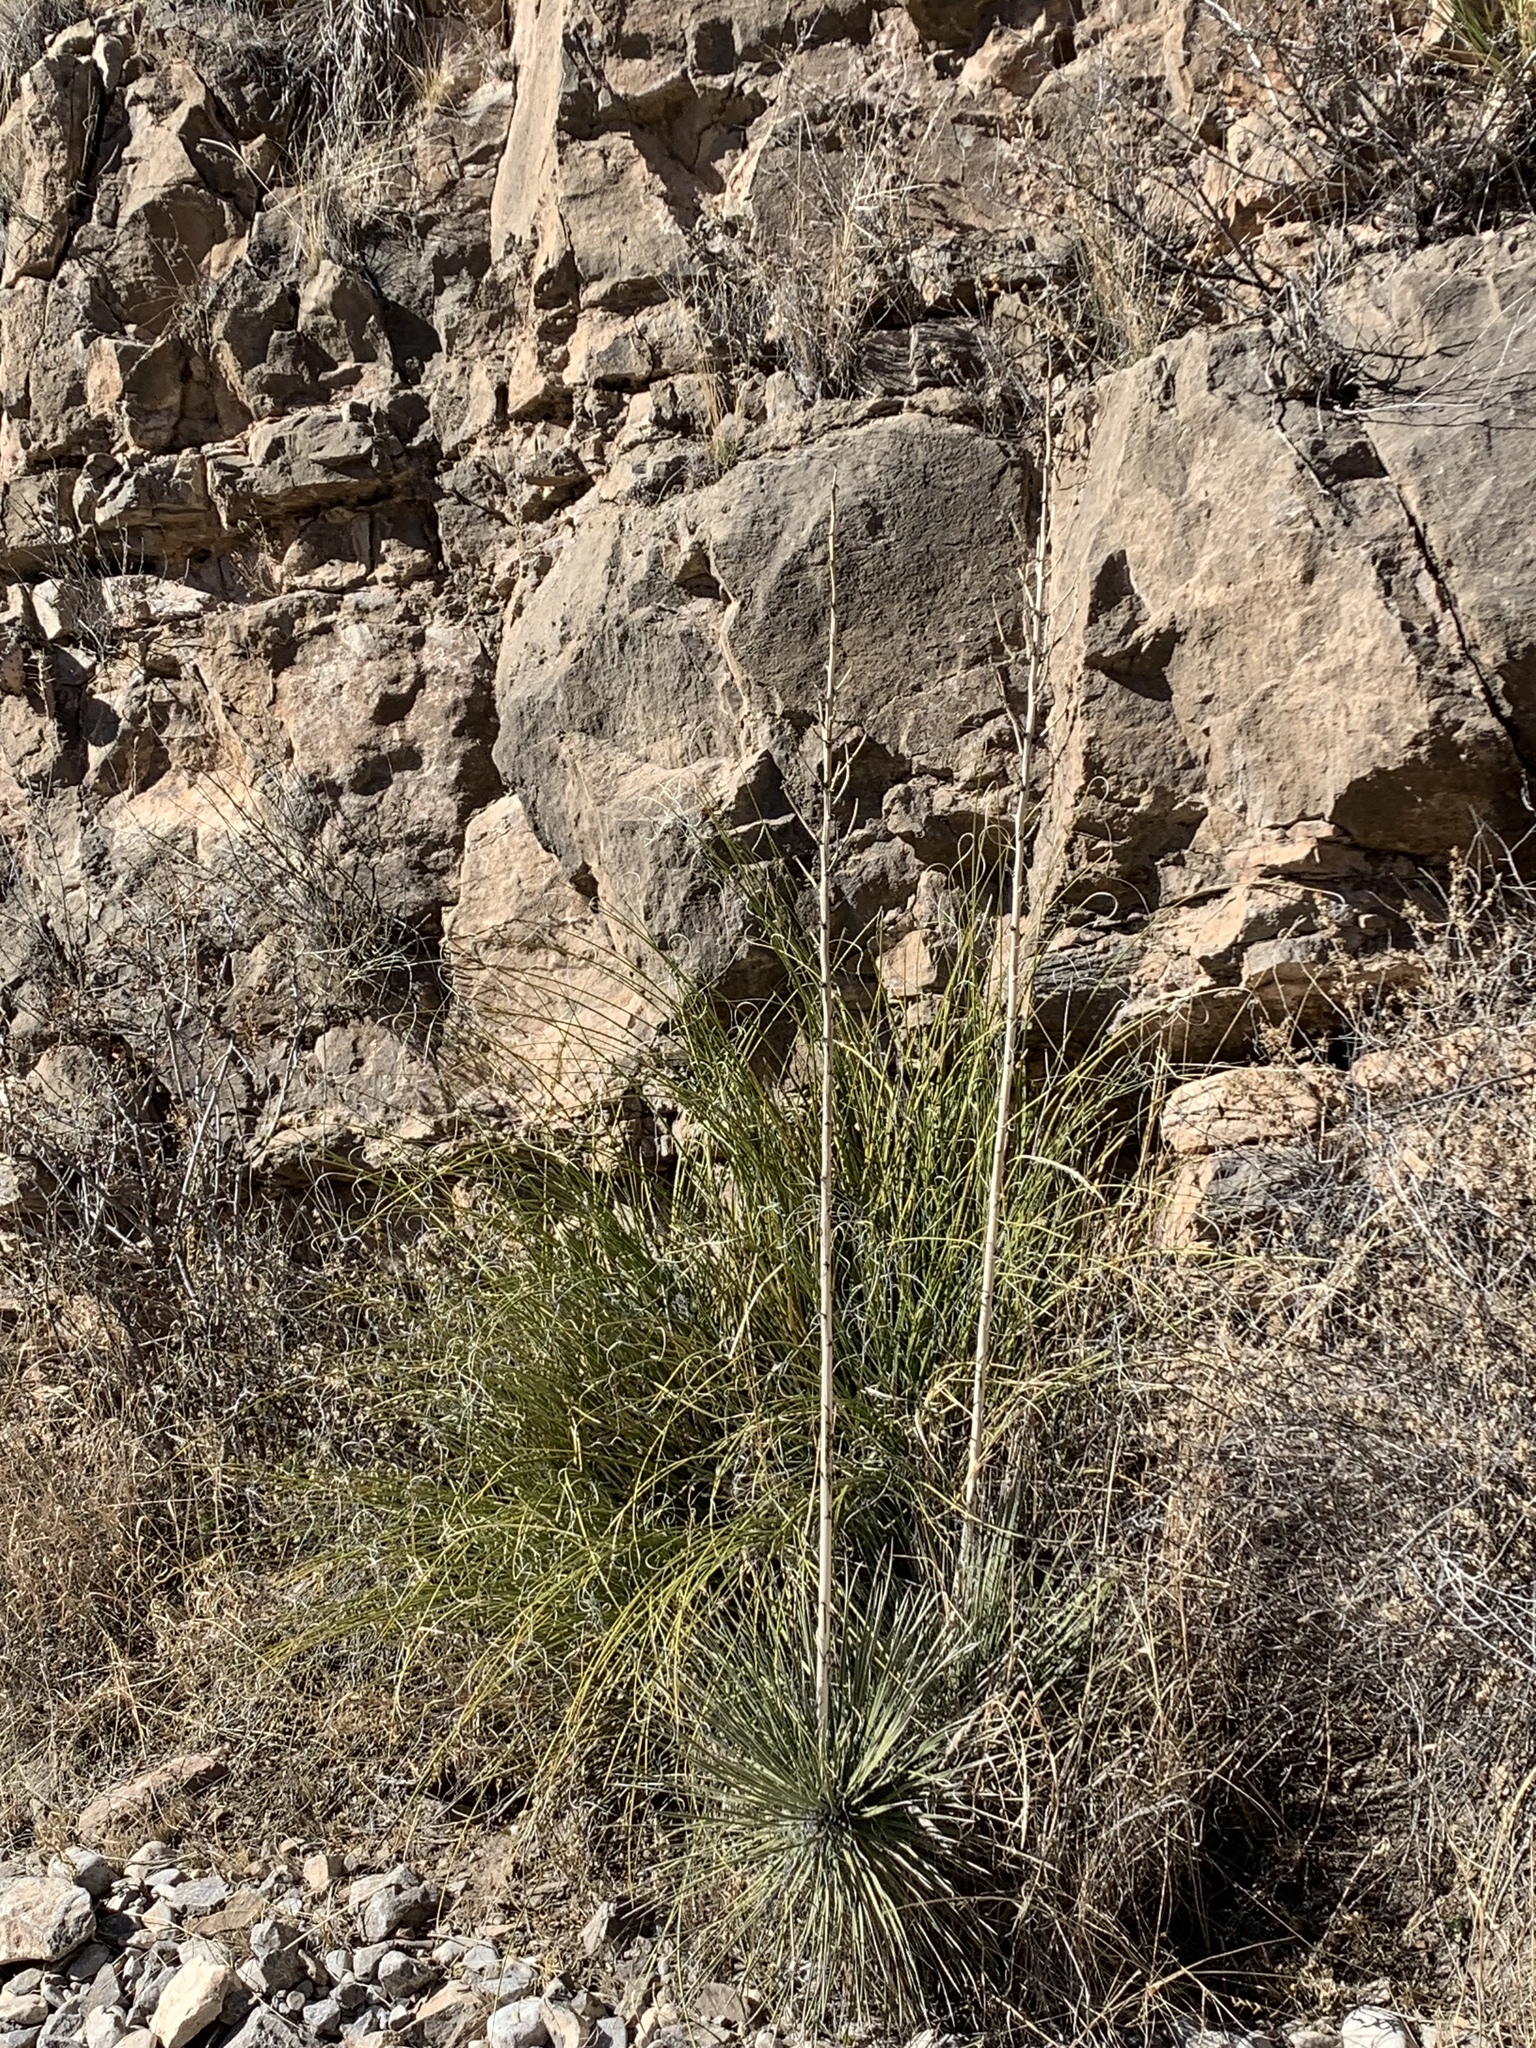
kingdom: Plantae
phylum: Tracheophyta
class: Liliopsida
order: Asparagales
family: Asparagaceae
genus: Yucca
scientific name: Yucca elata
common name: Palmella
